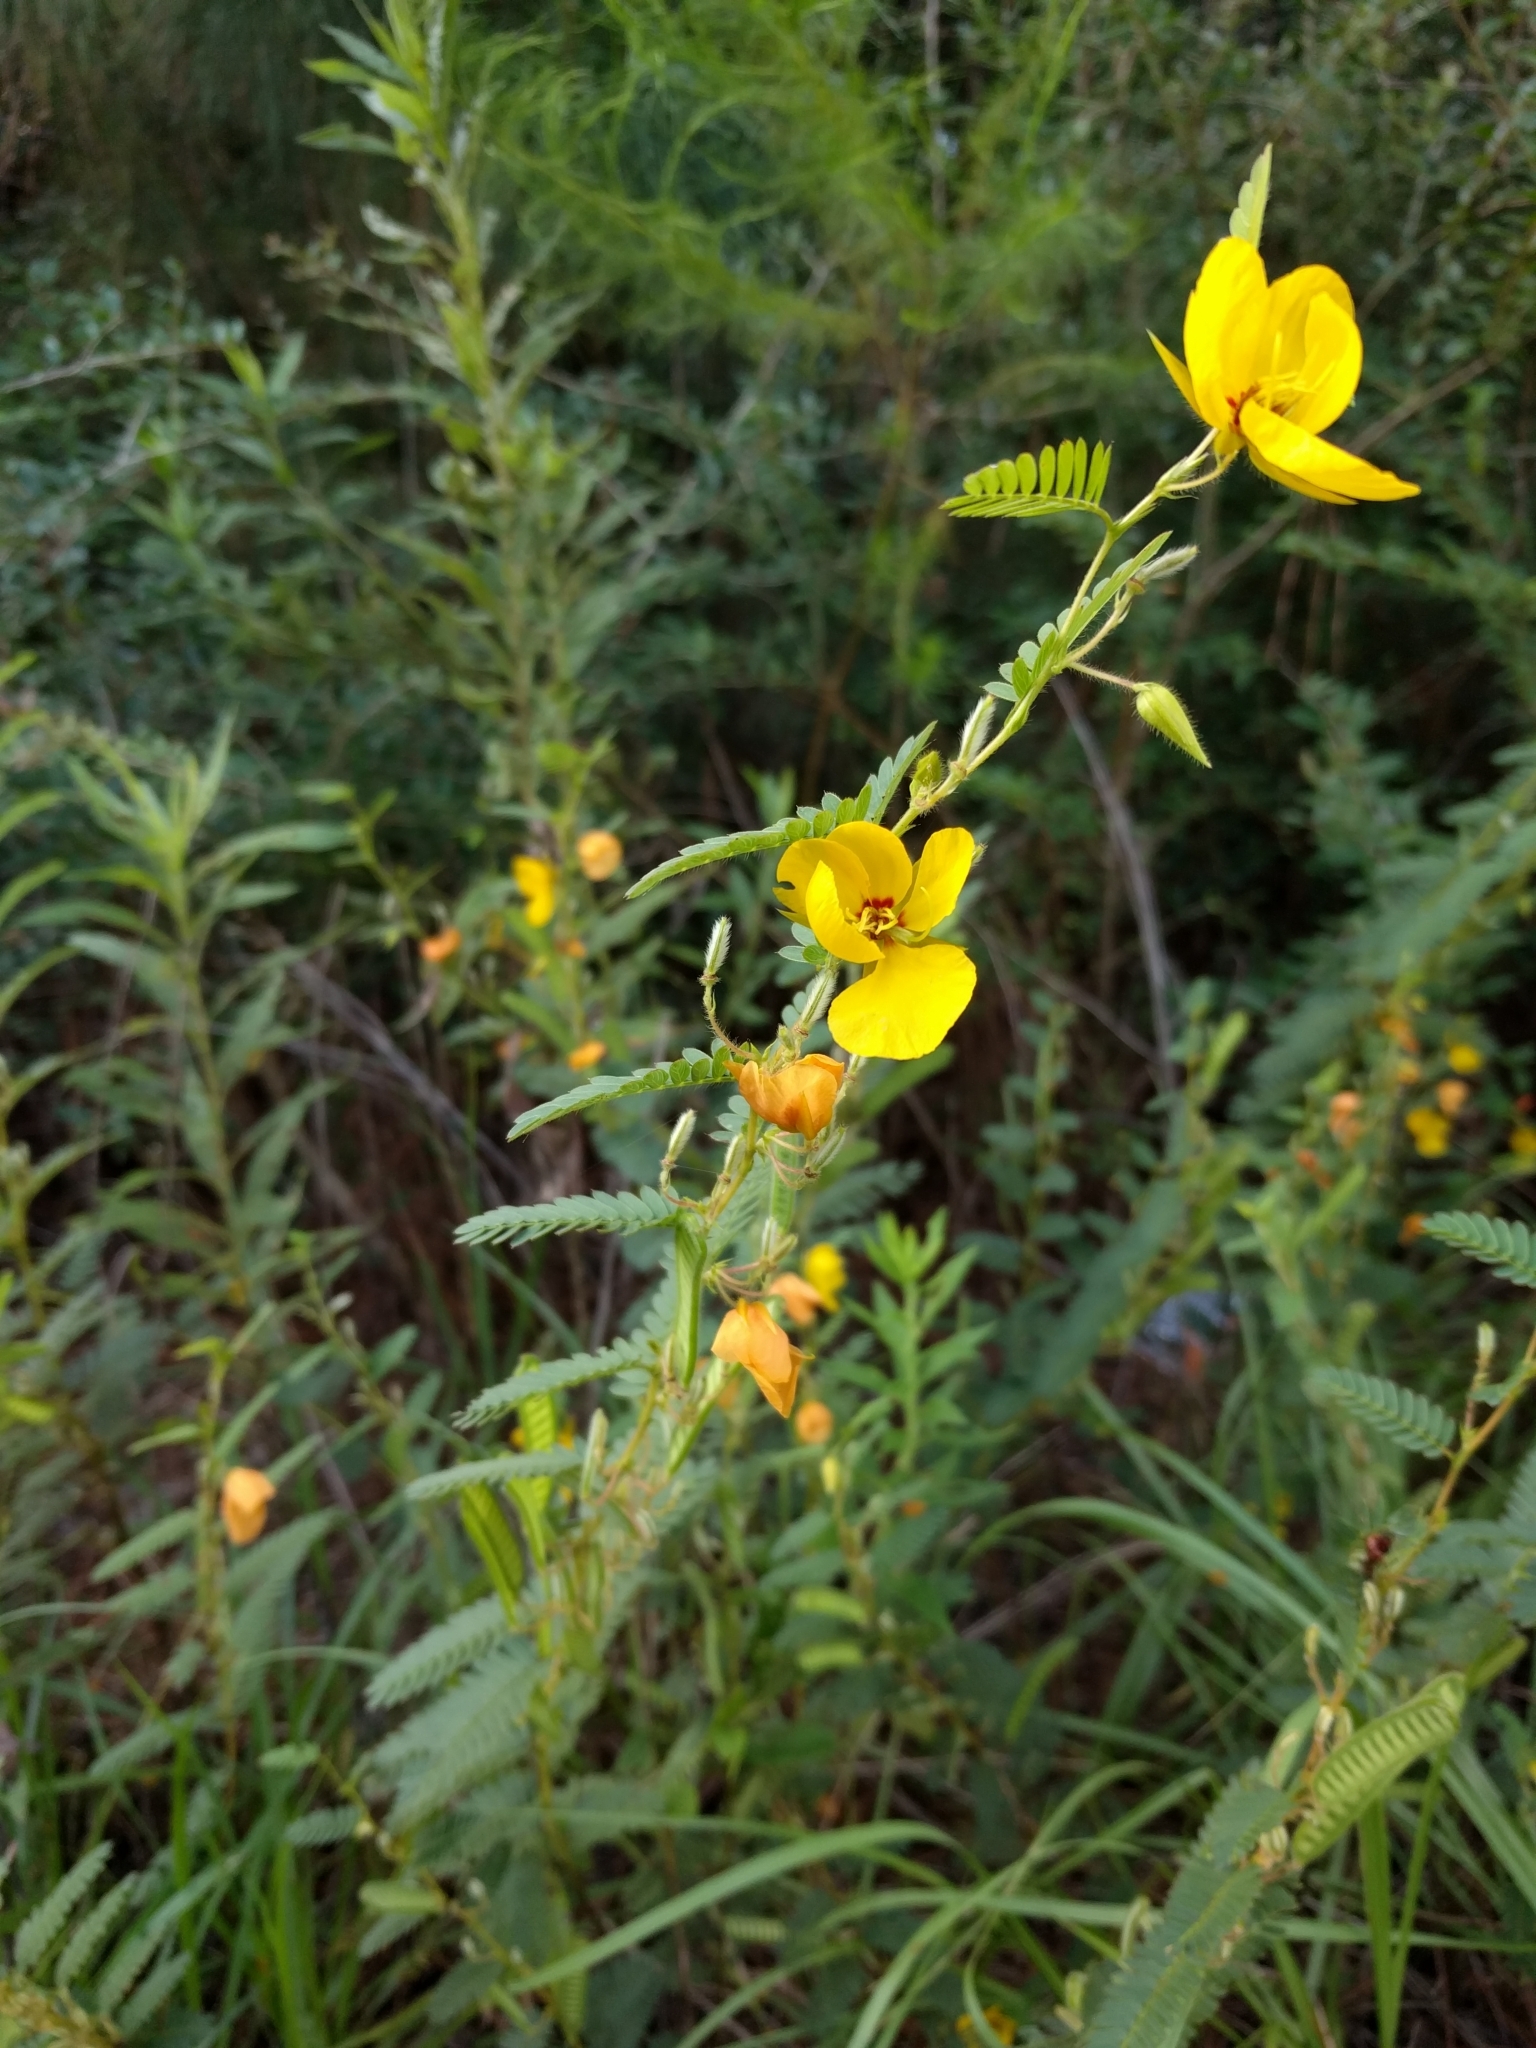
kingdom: Plantae
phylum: Tracheophyta
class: Magnoliopsida
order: Fabales
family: Fabaceae
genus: Chamaecrista
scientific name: Chamaecrista fasciculata
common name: Golden cassia
